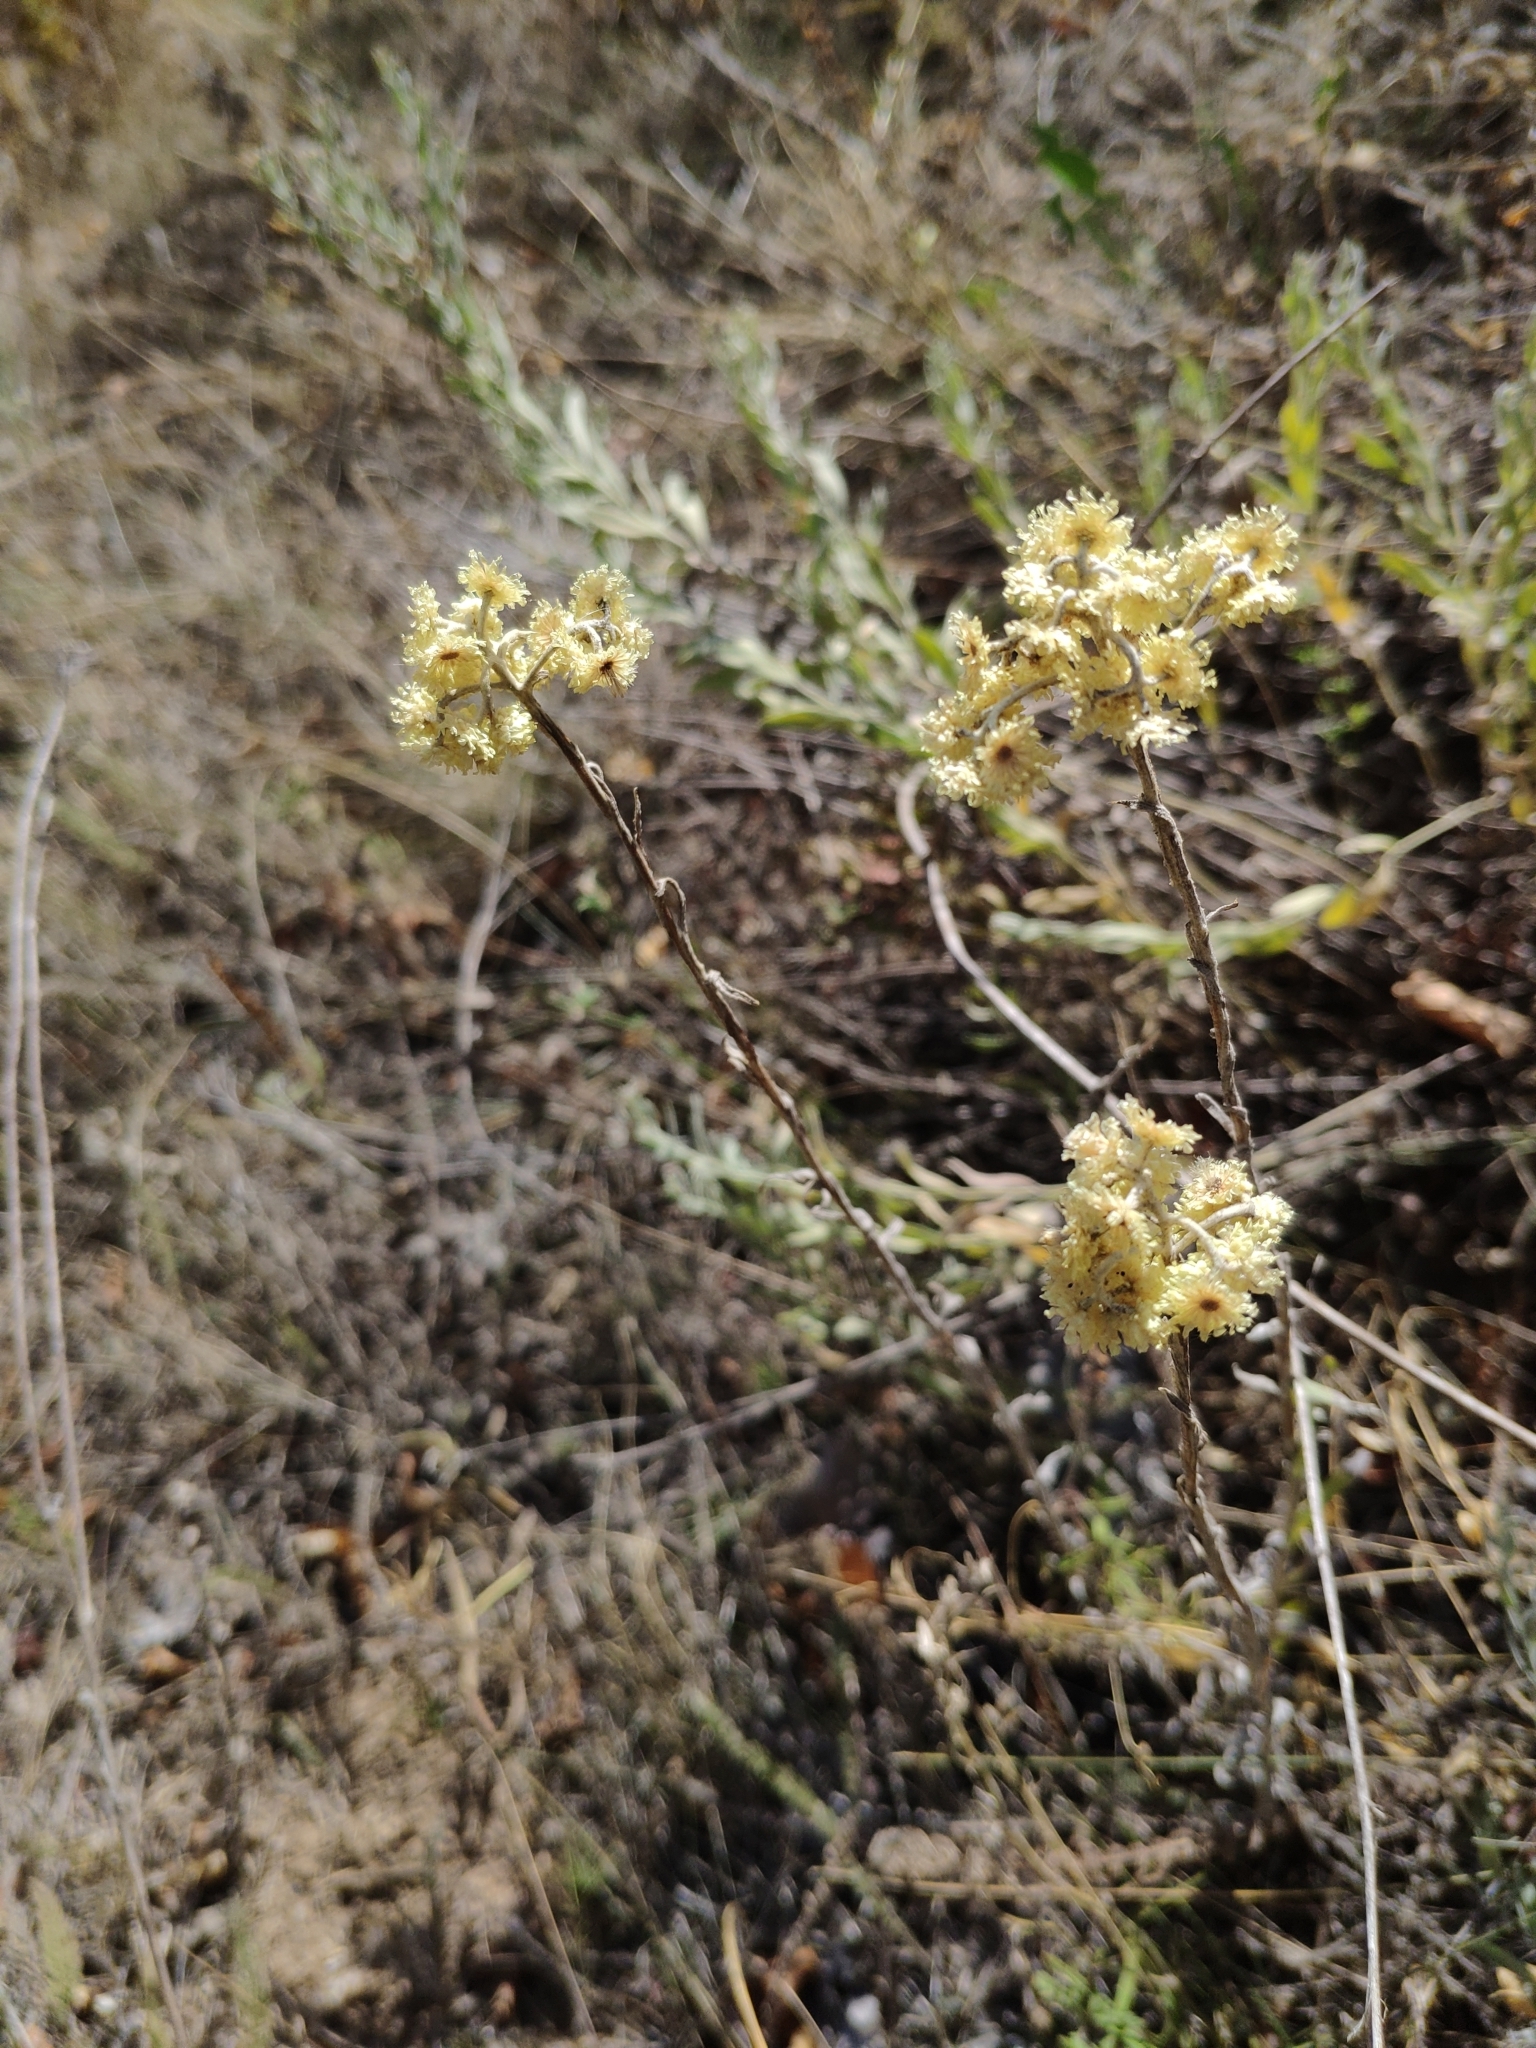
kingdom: Plantae
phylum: Tracheophyta
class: Magnoliopsida
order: Asterales
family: Asteraceae
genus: Helichrysum
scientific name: Helichrysum arenarium
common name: Strawflower
